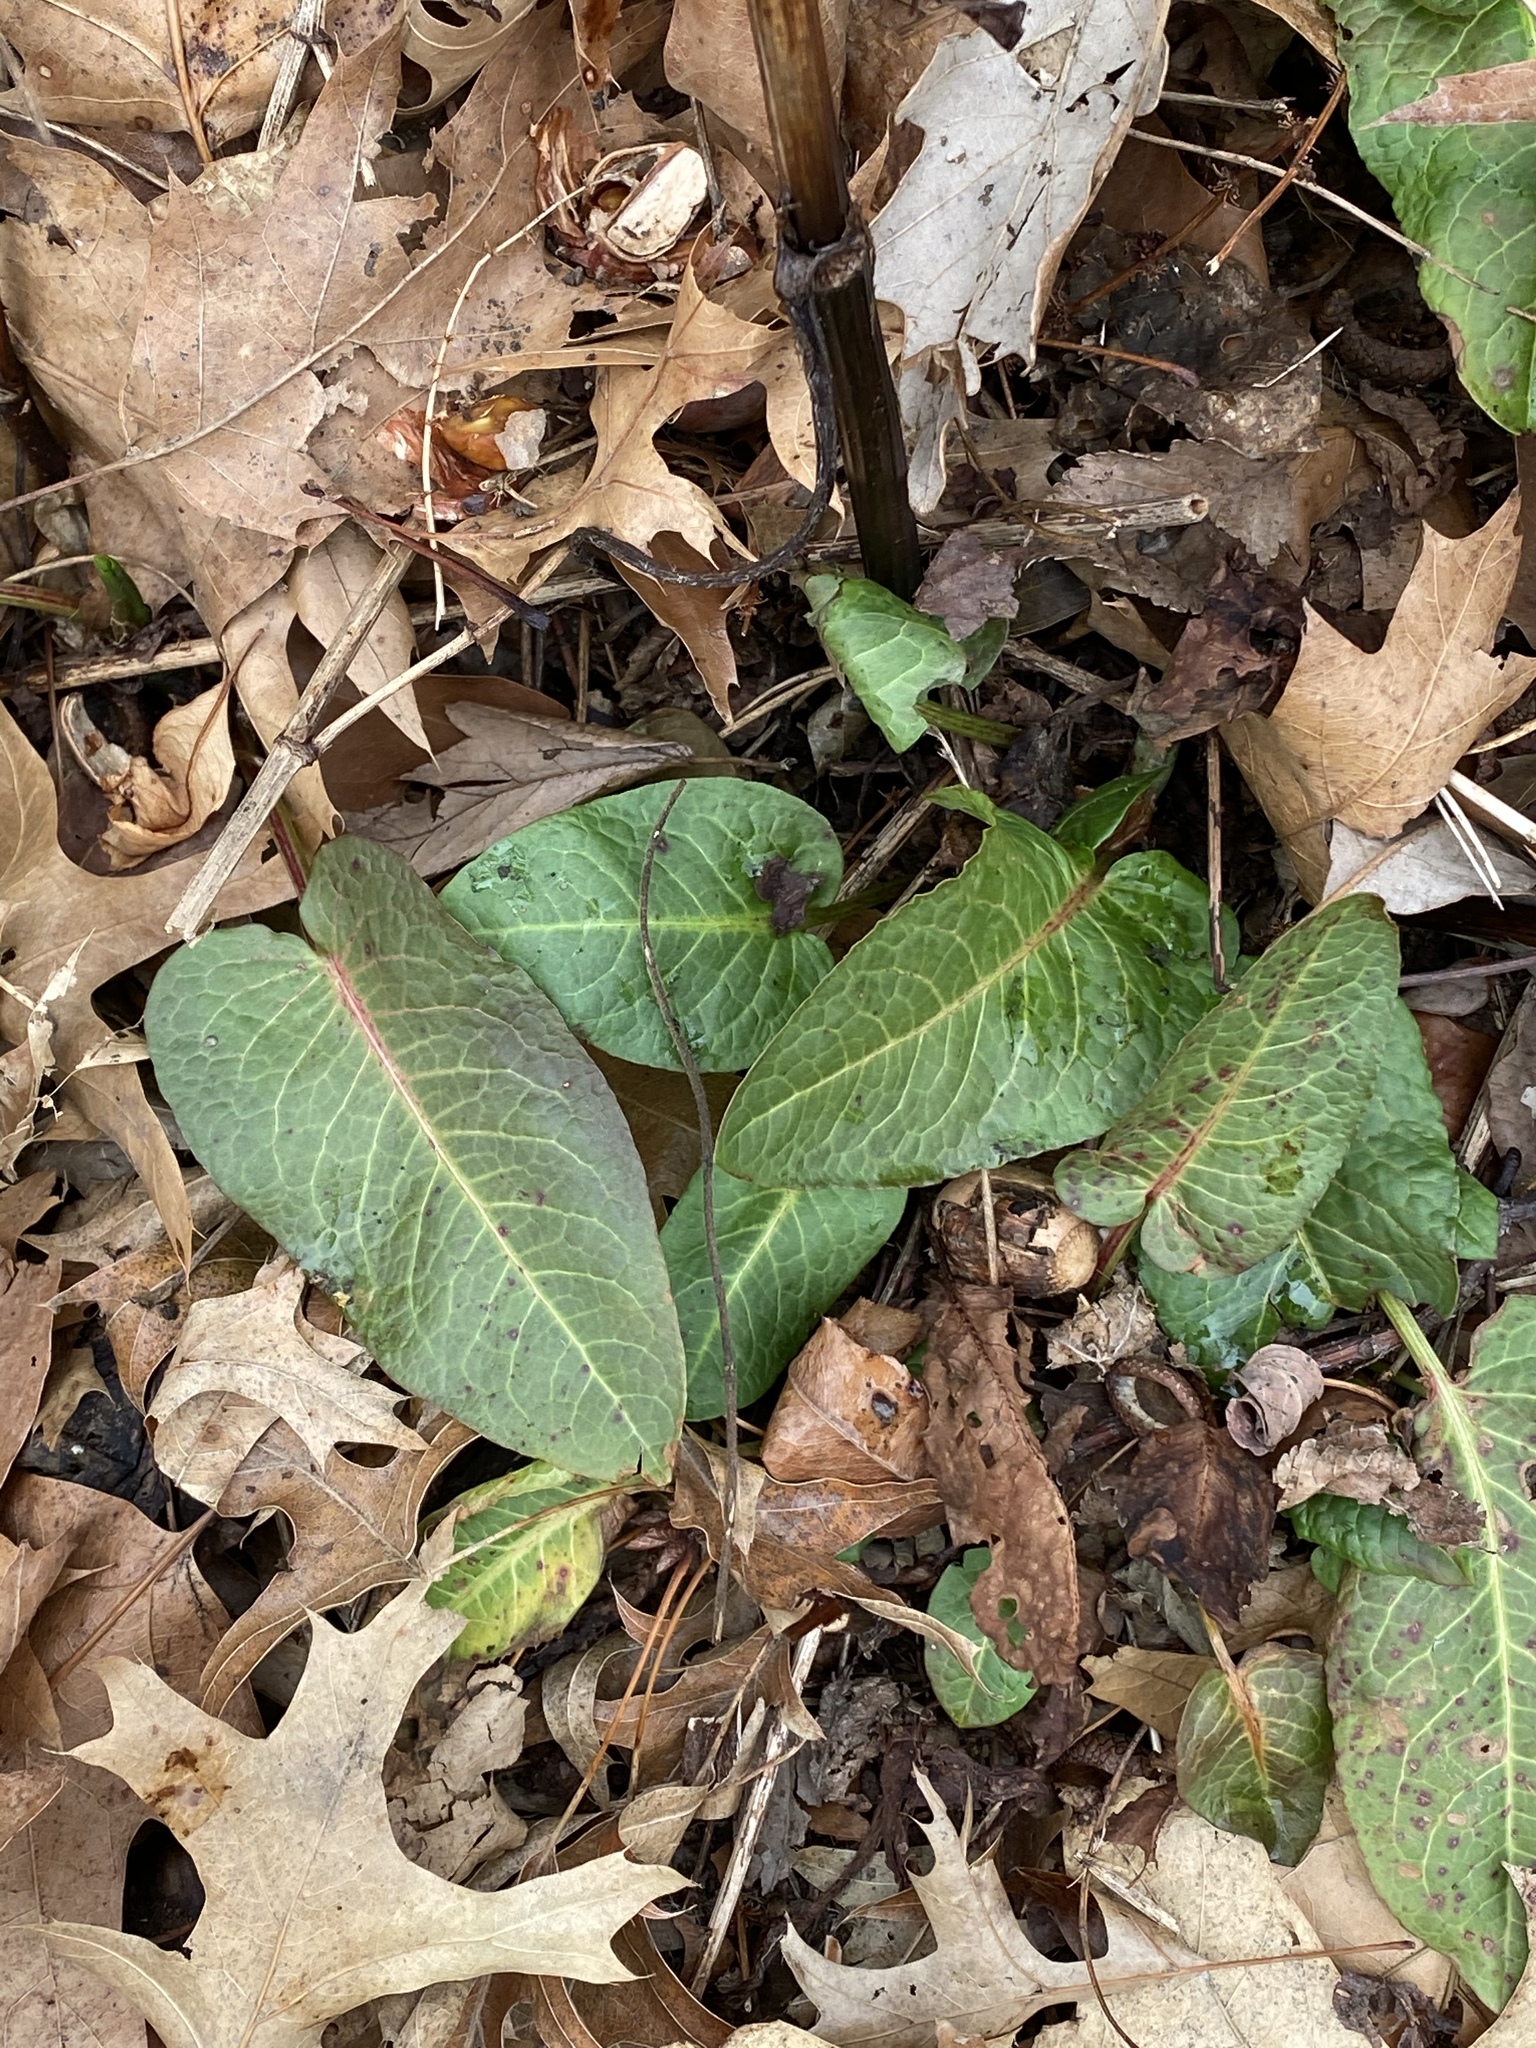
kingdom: Plantae
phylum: Tracheophyta
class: Magnoliopsida
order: Caryophyllales
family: Polygonaceae
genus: Rumex
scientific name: Rumex obtusifolius
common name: Bitter dock
